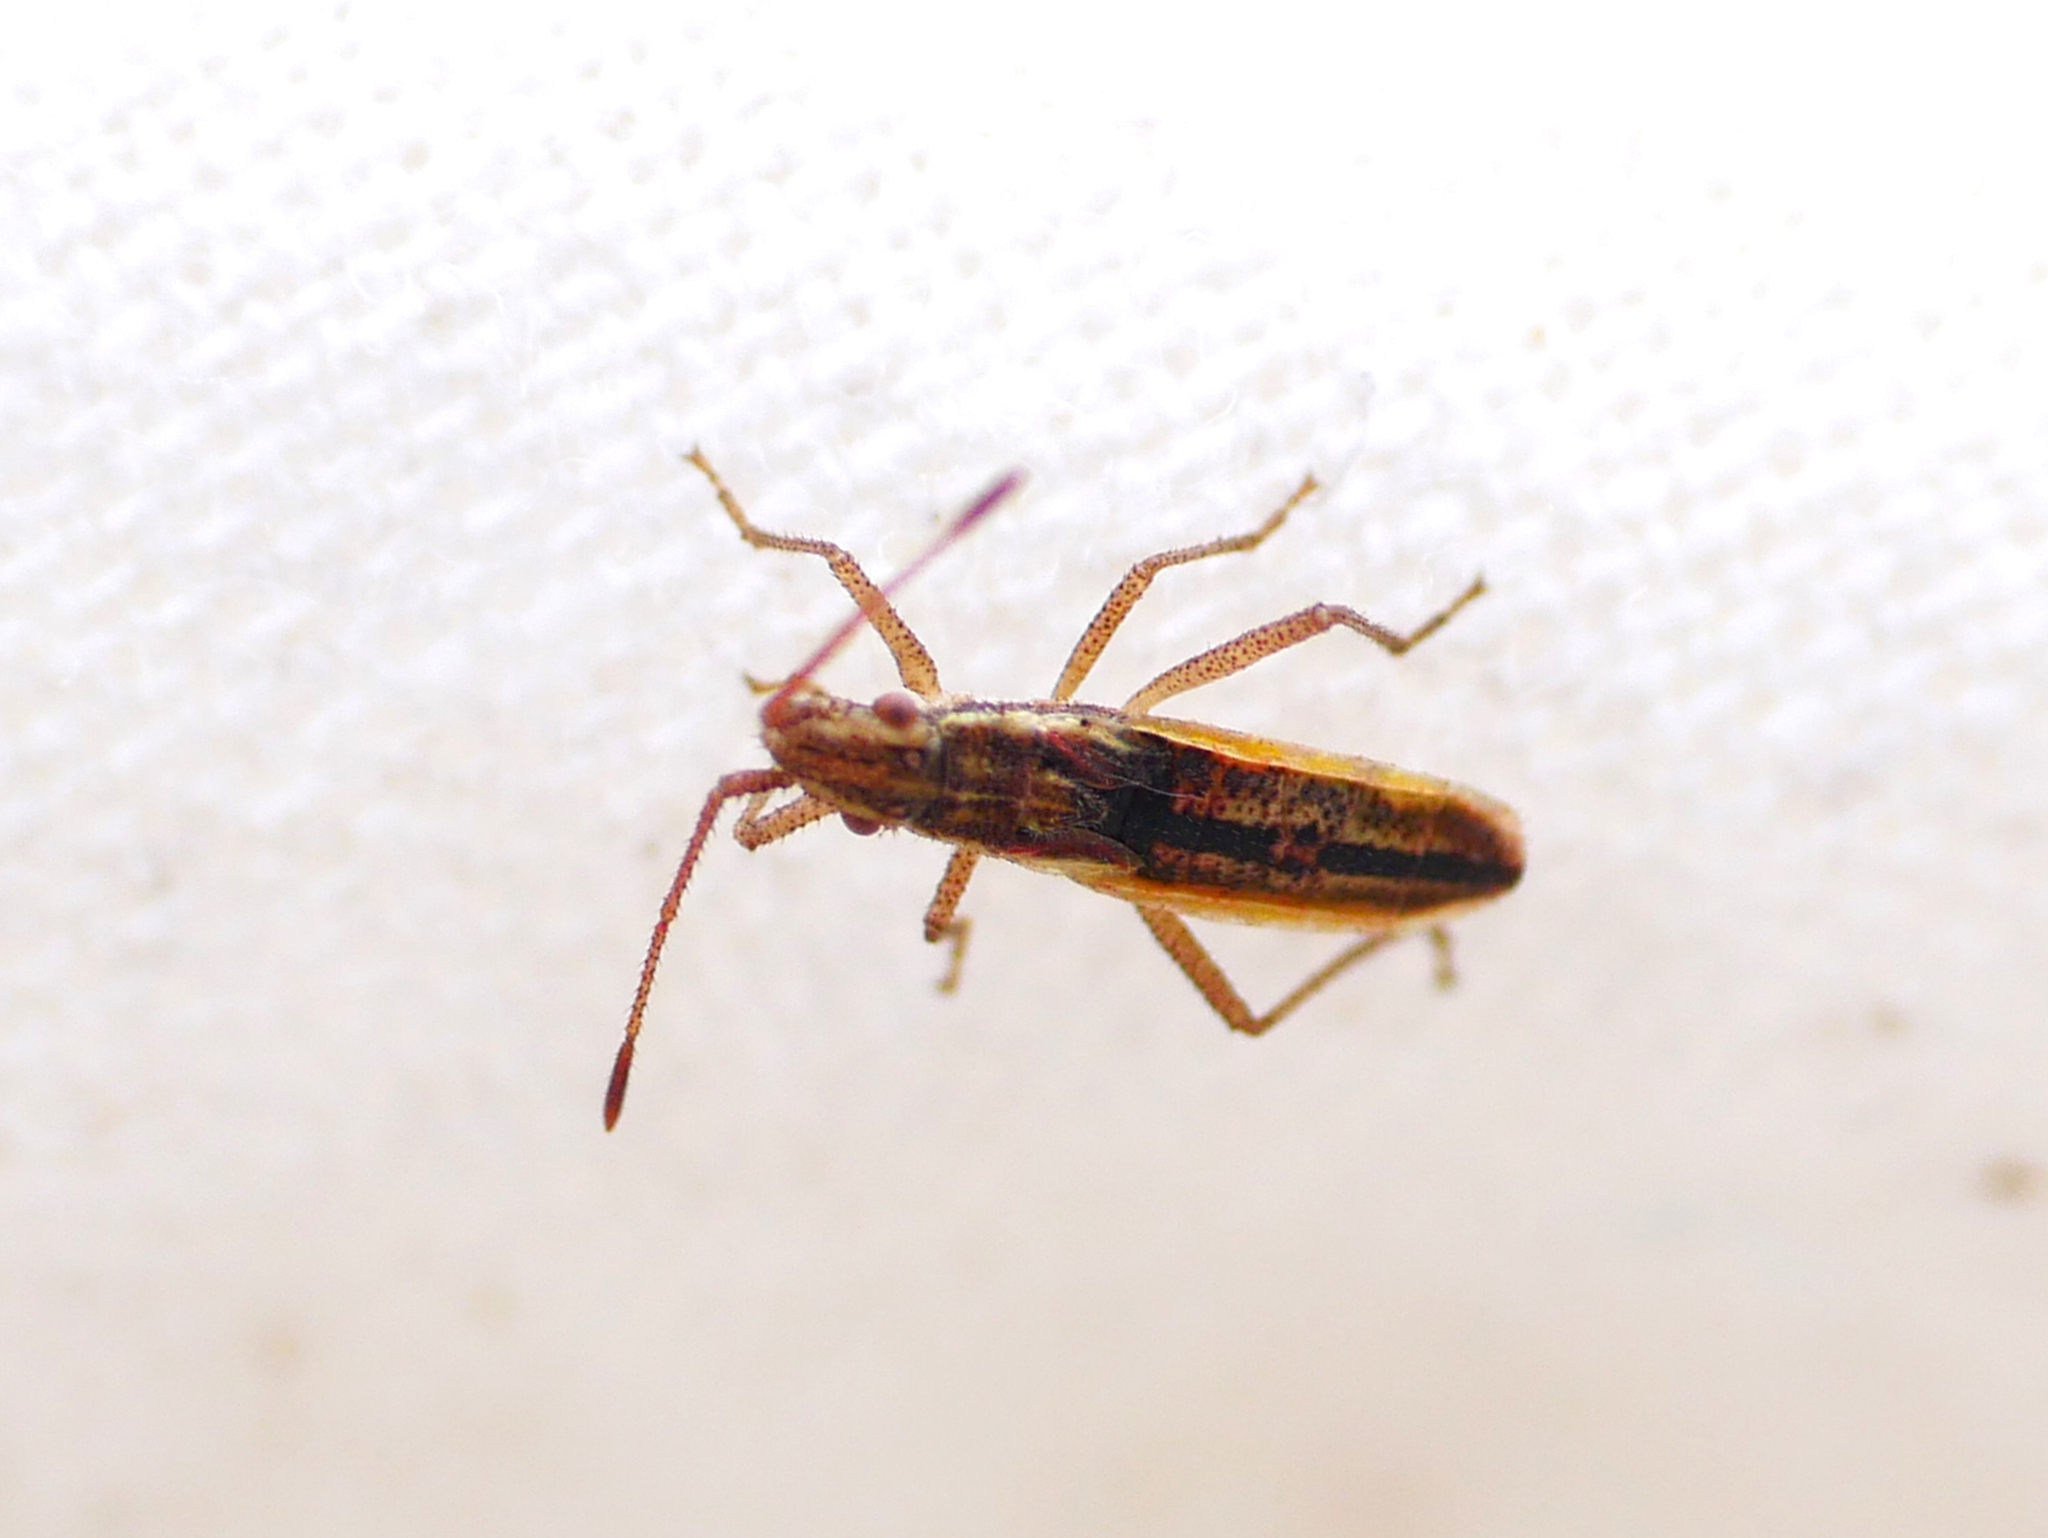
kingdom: Animalia
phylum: Arthropoda
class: Insecta
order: Hemiptera
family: Rhopalidae
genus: Myrmus
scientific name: Myrmus miriformis
